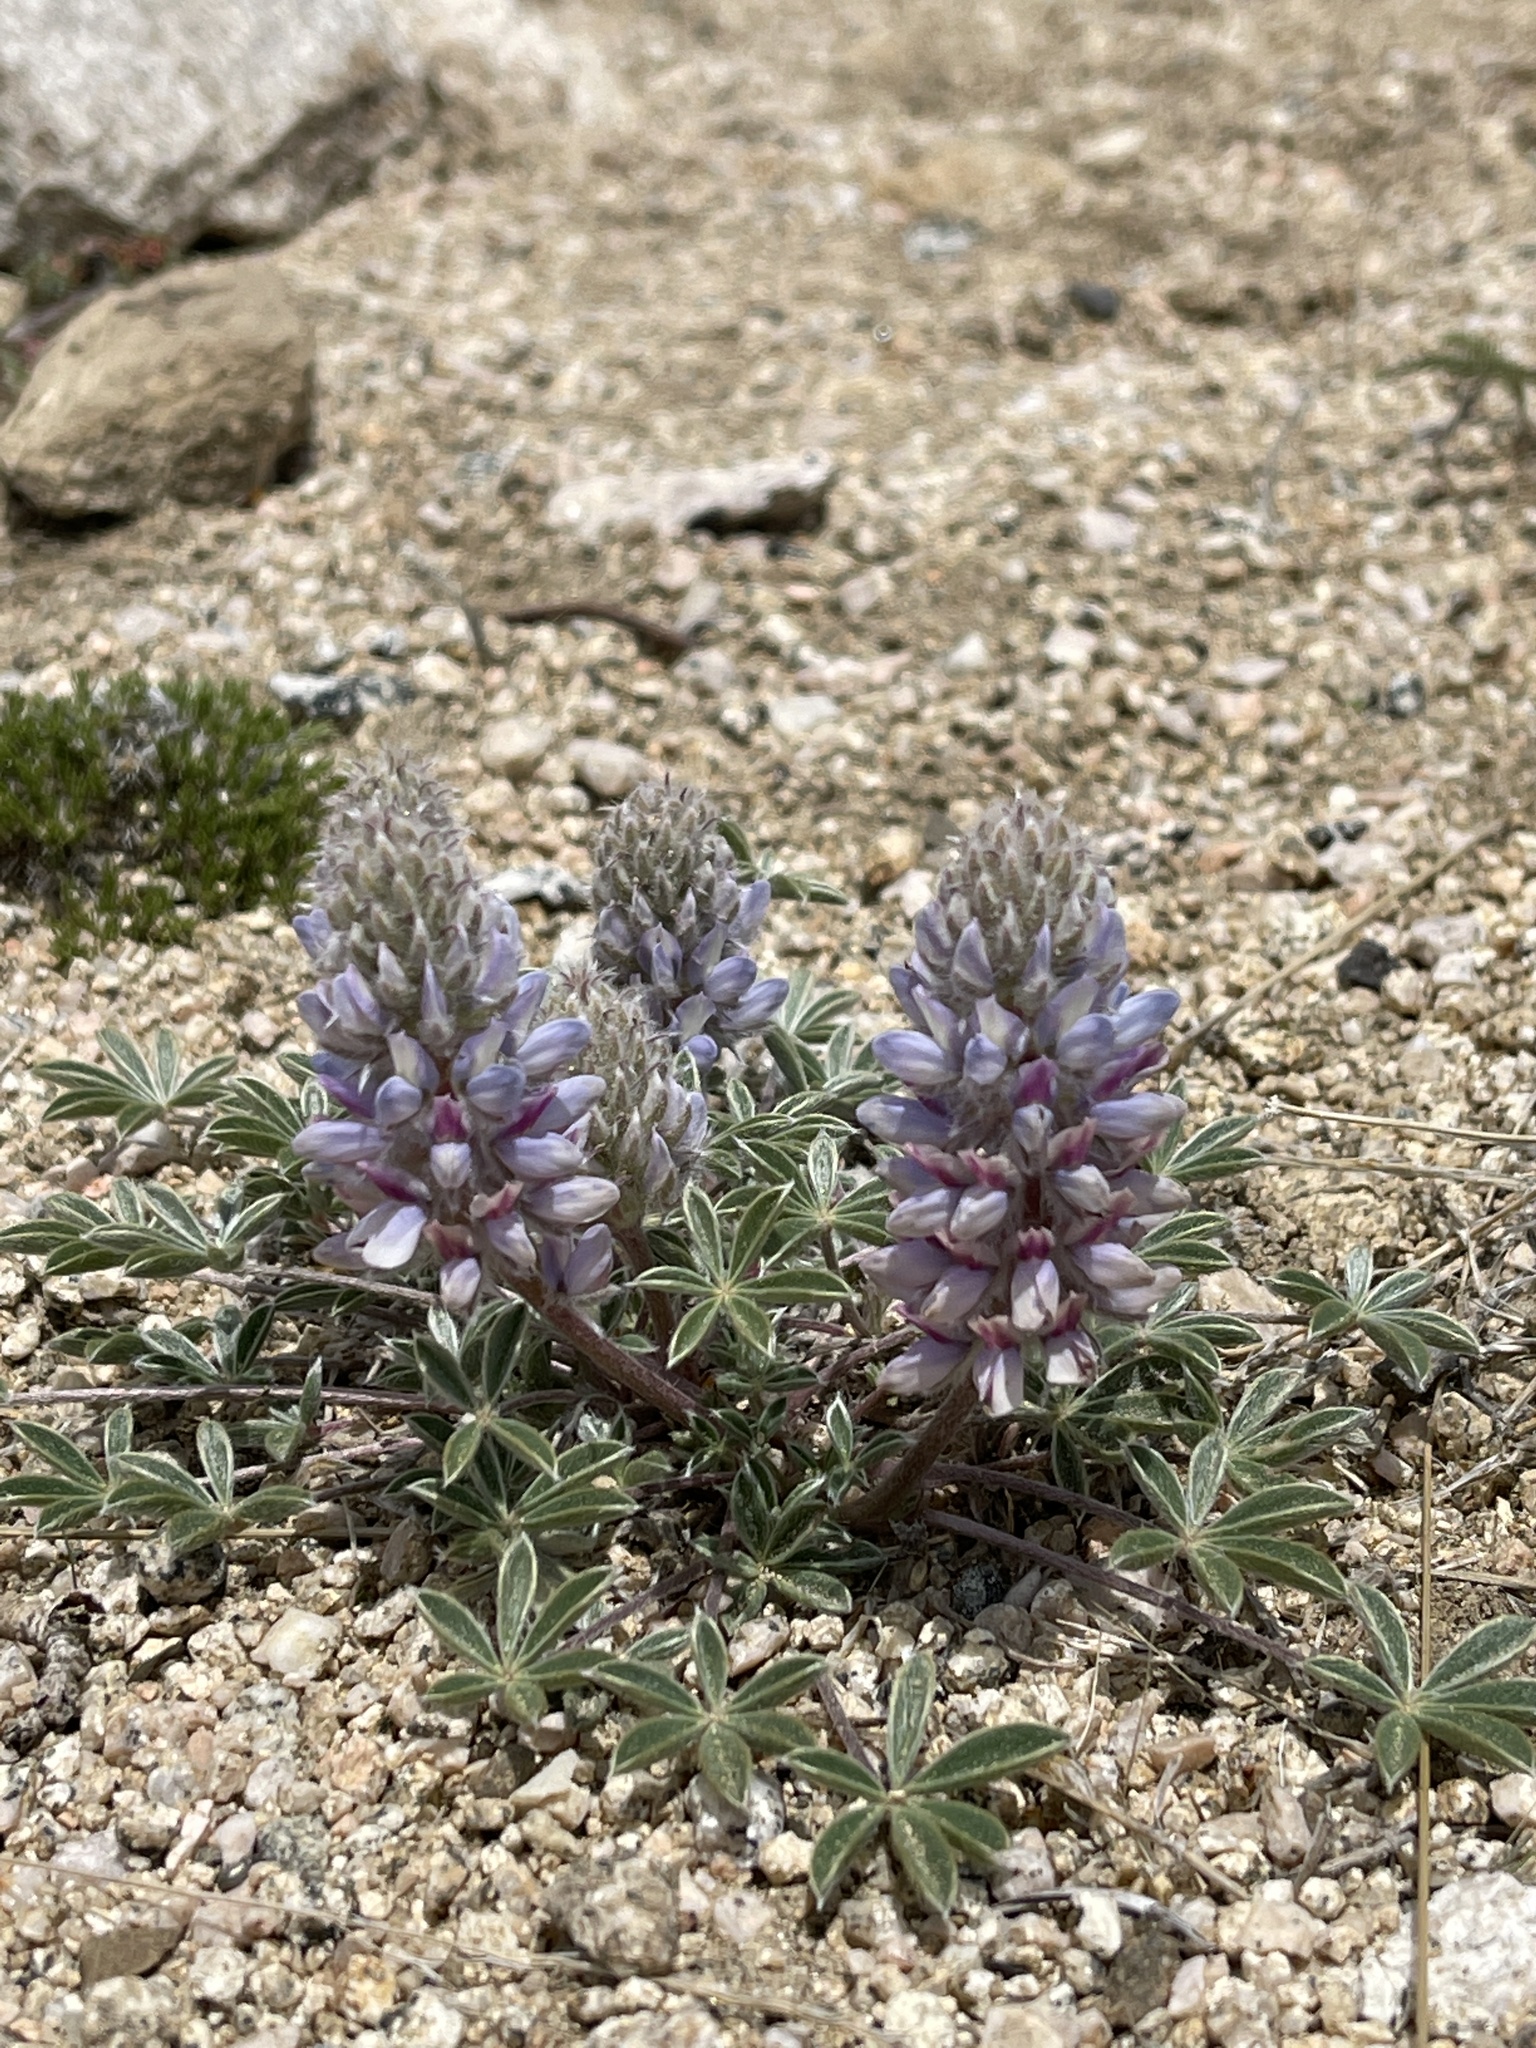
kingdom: Plantae
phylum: Tracheophyta
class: Magnoliopsida
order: Fabales
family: Fabaceae
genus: Lupinus
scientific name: Lupinus aridus
